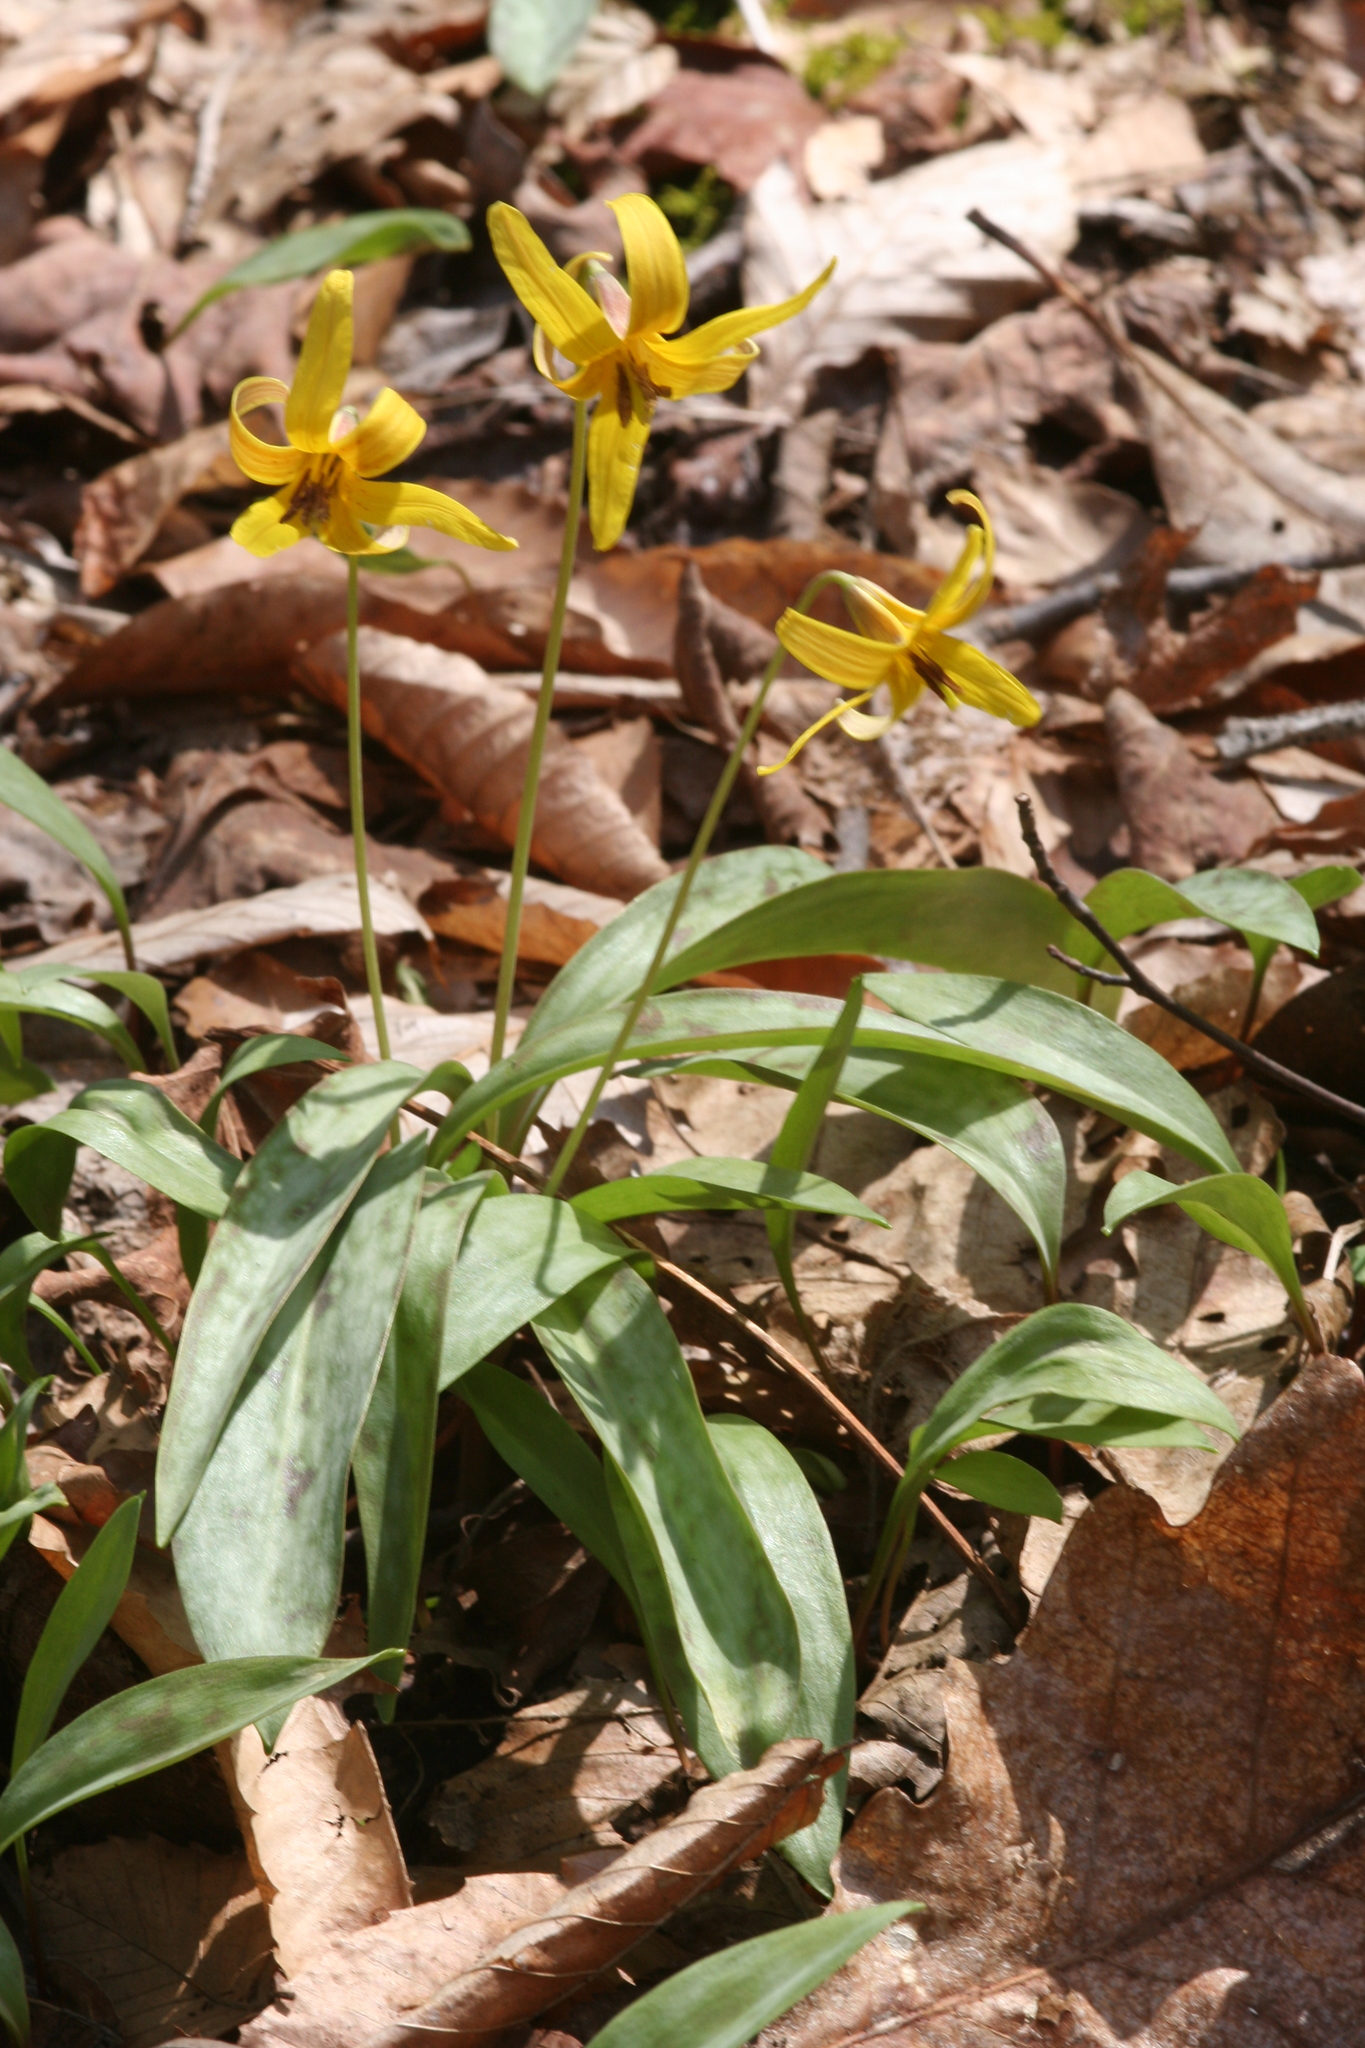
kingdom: Plantae
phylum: Tracheophyta
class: Liliopsida
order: Liliales
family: Liliaceae
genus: Erythronium
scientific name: Erythronium americanum
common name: Yellow adder's-tongue
